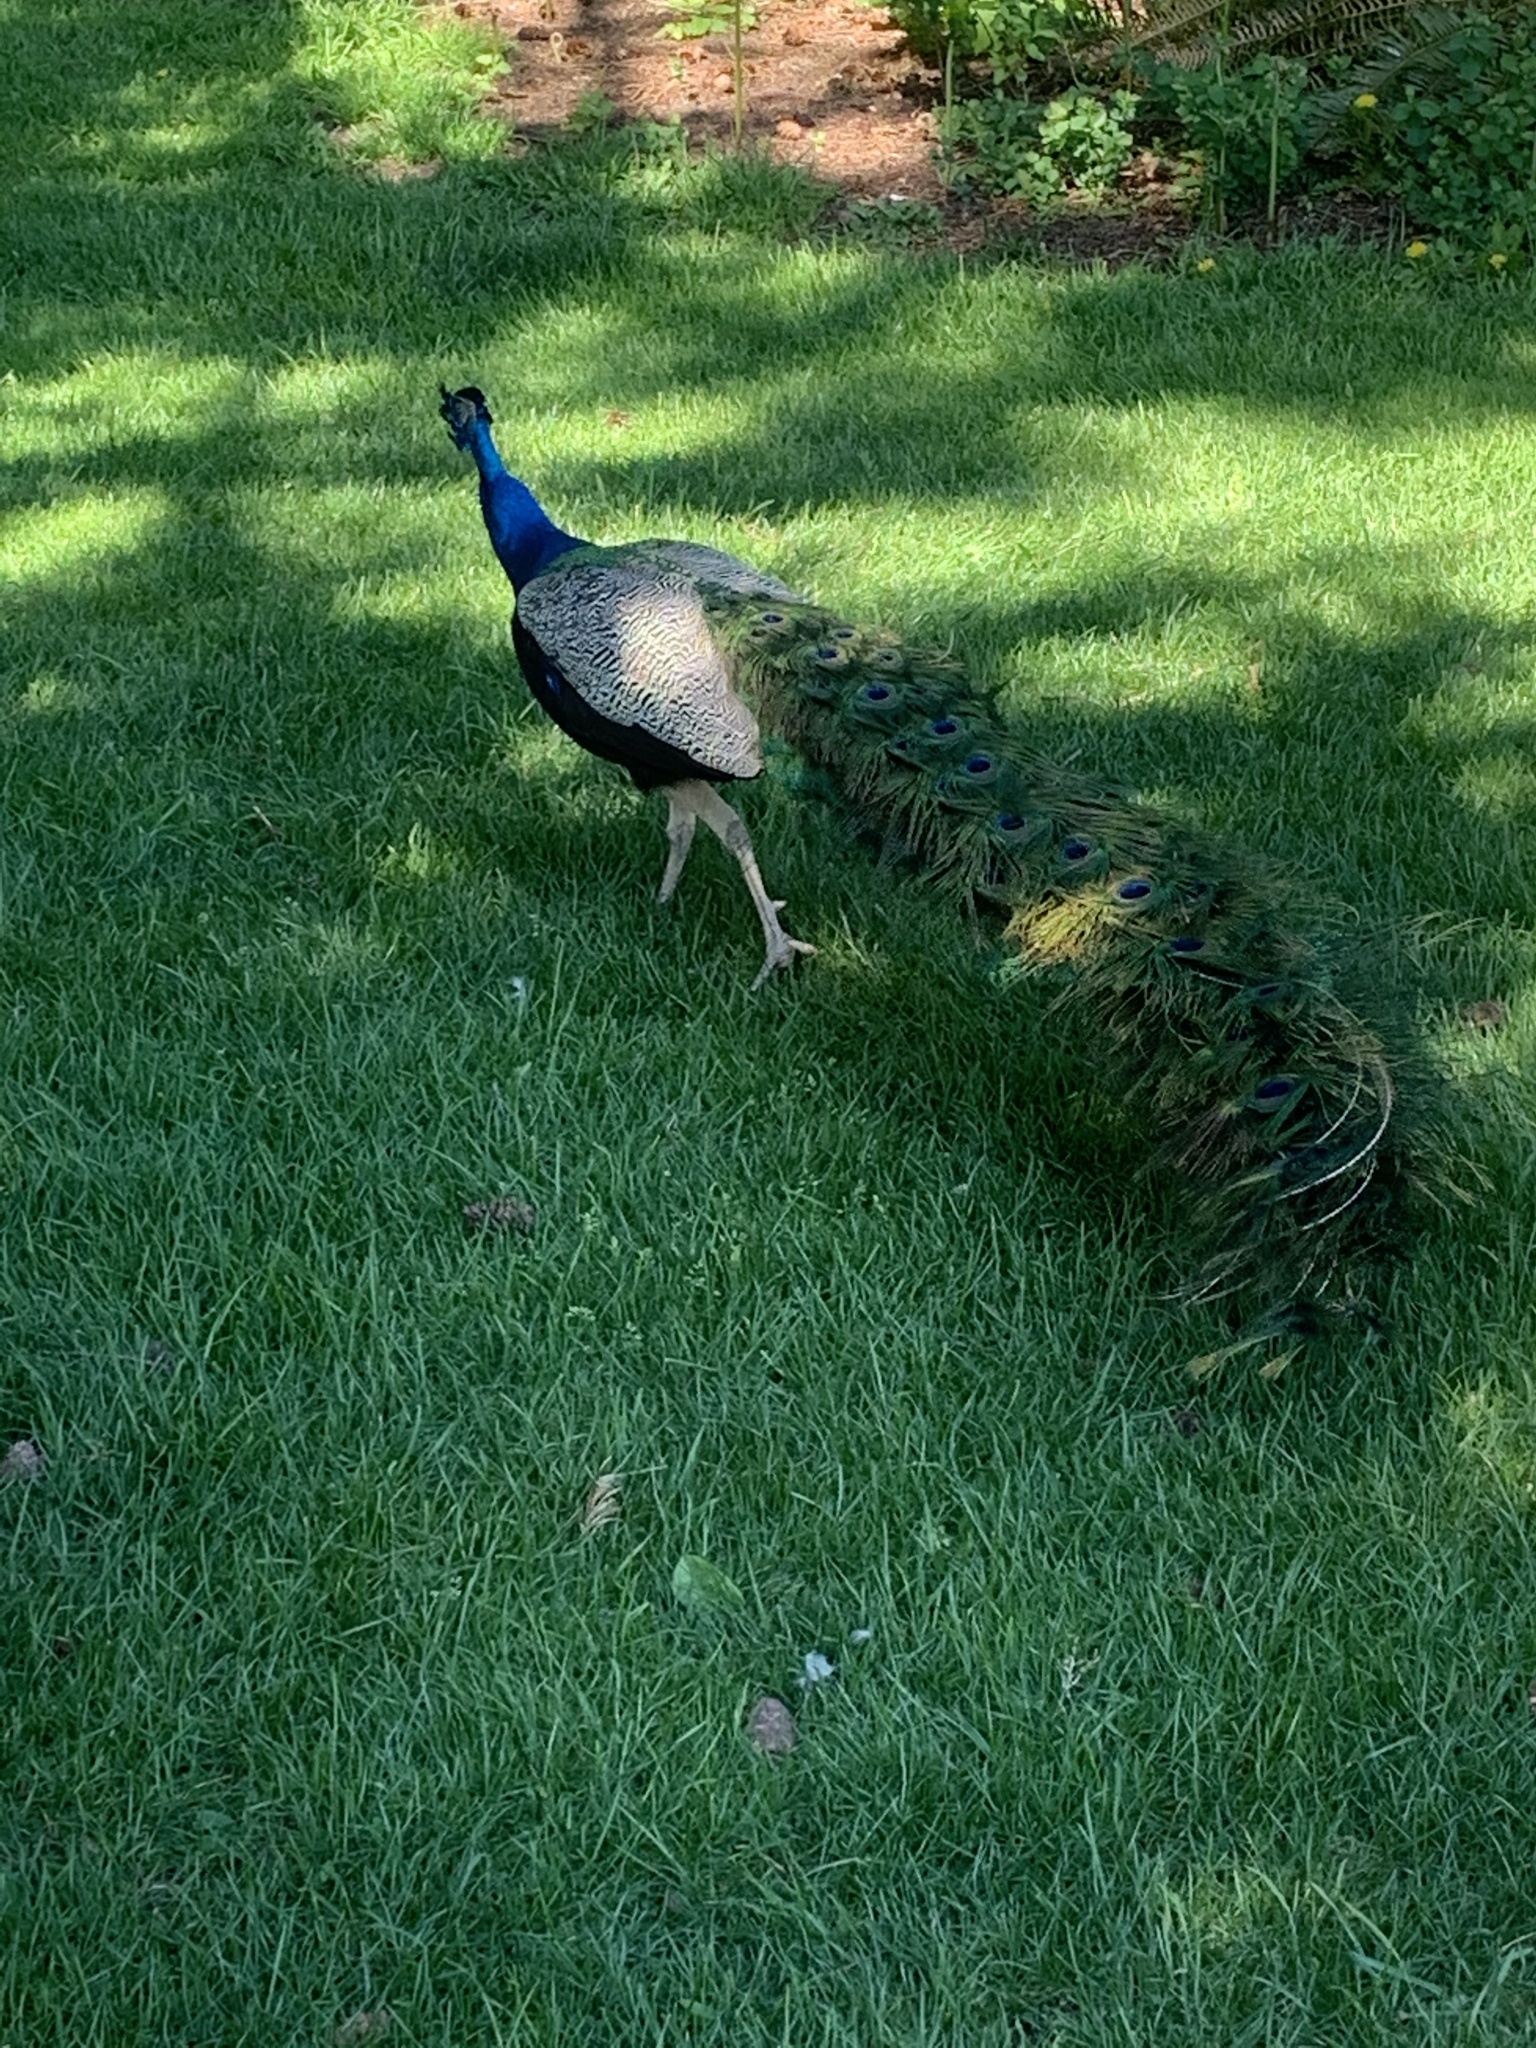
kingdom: Animalia
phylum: Chordata
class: Aves
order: Galliformes
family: Phasianidae
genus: Pavo
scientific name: Pavo cristatus
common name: Indian peafowl
